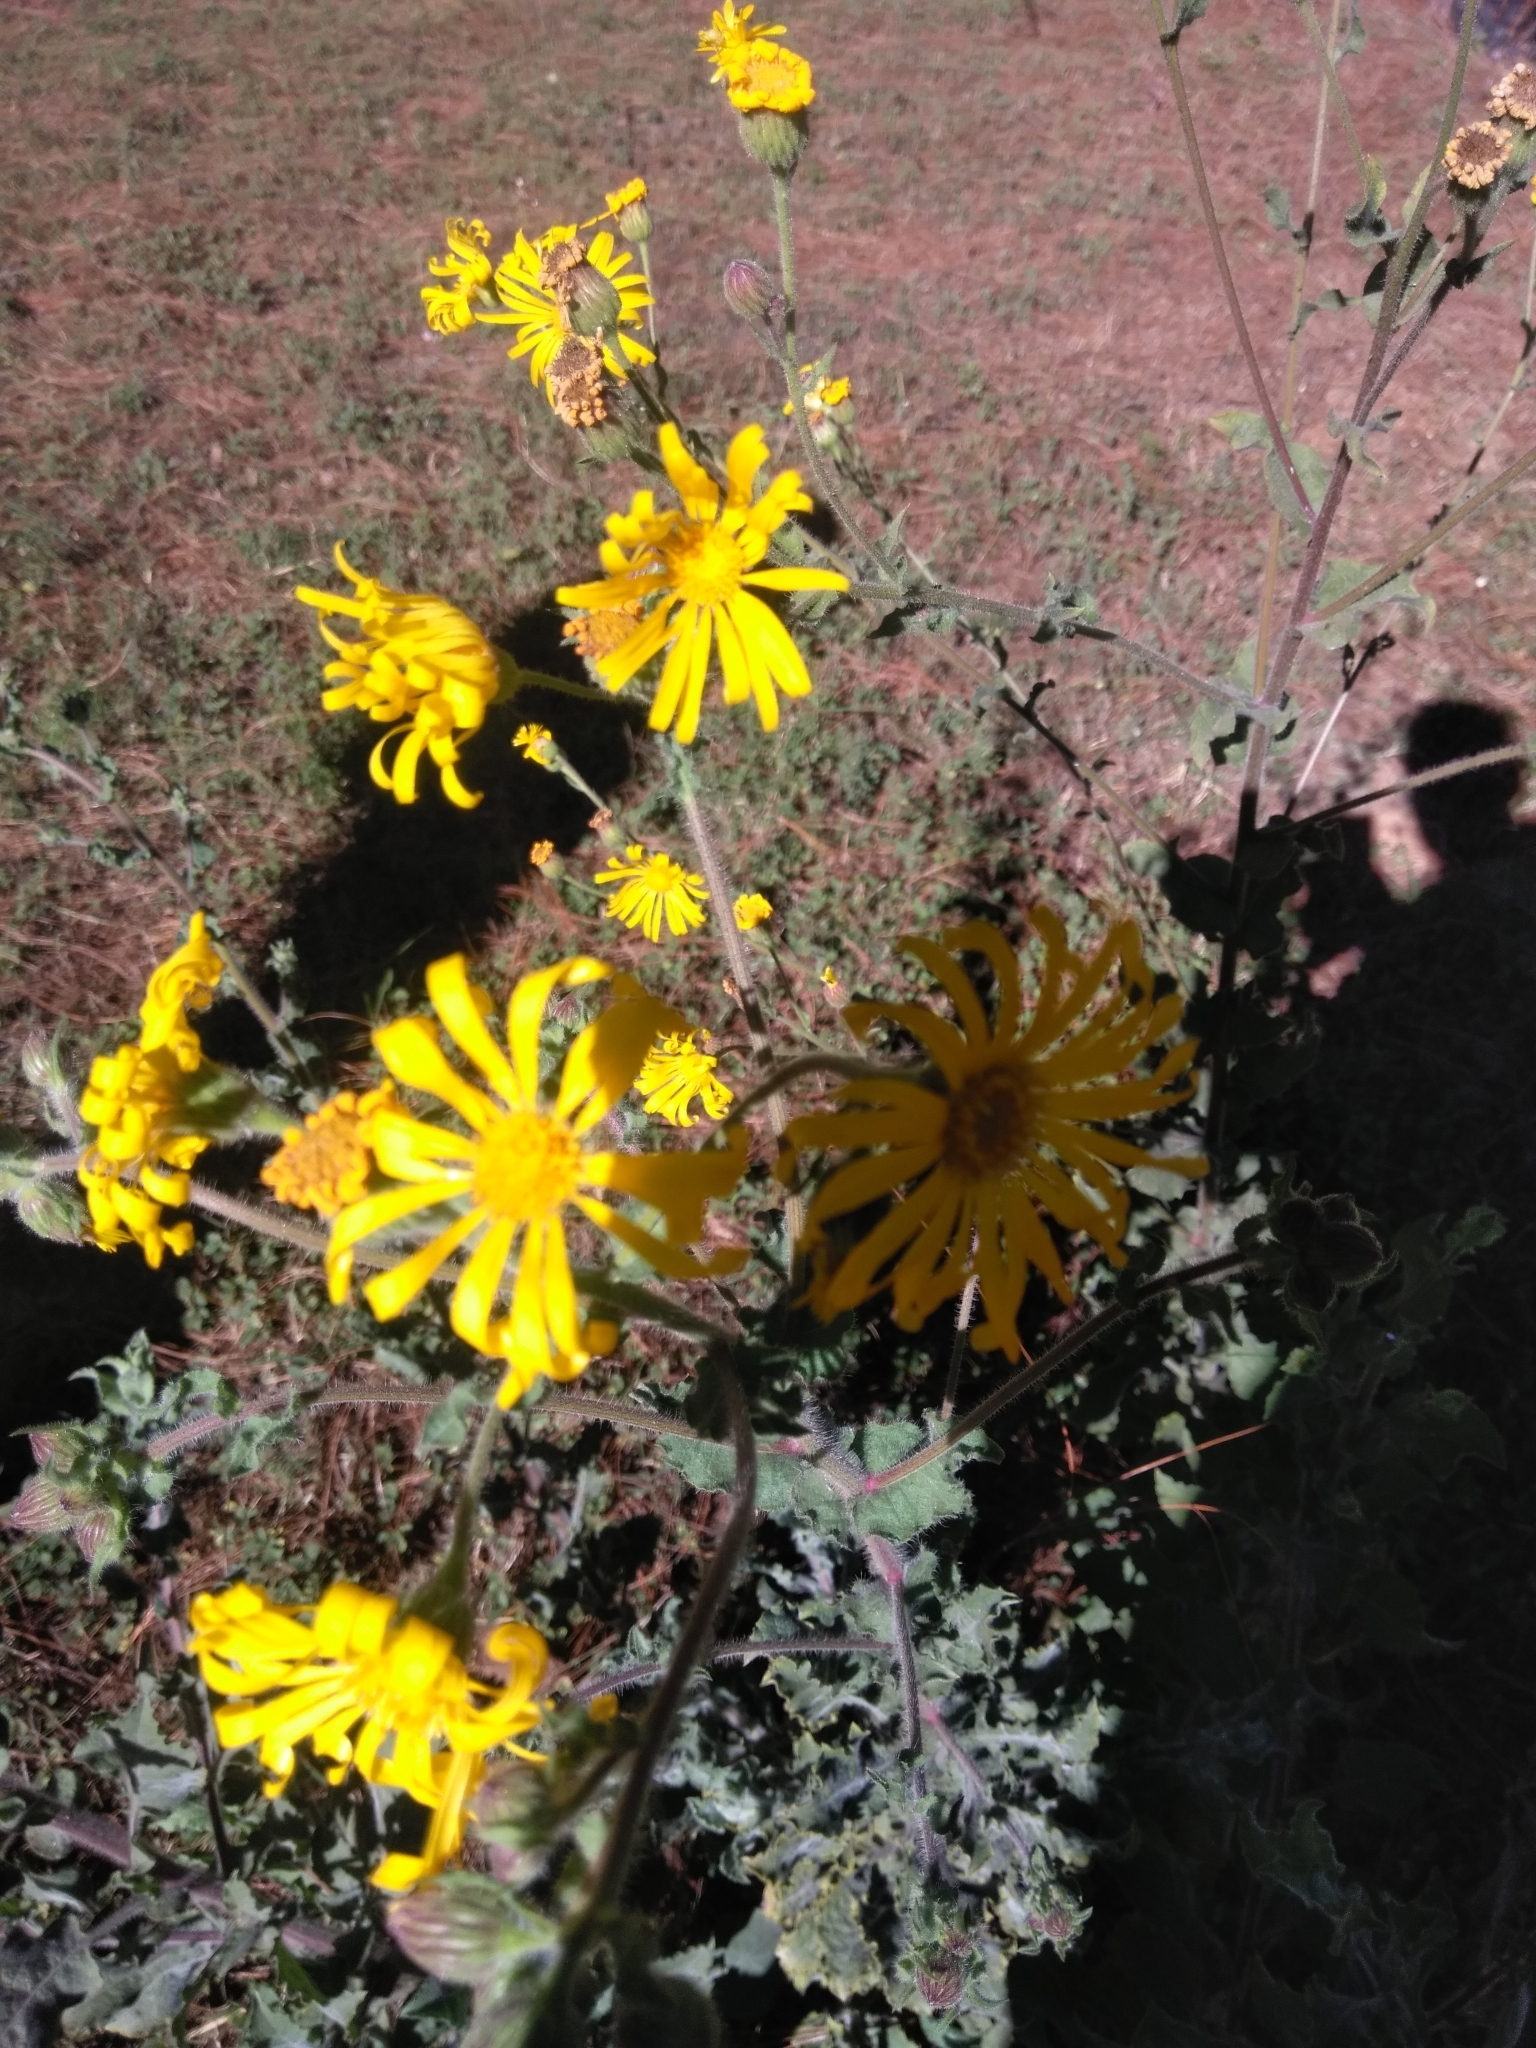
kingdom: Plantae
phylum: Tracheophyta
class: Magnoliopsida
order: Asterales
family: Asteraceae
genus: Heterotheca
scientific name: Heterotheca inuloides
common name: False arnica
